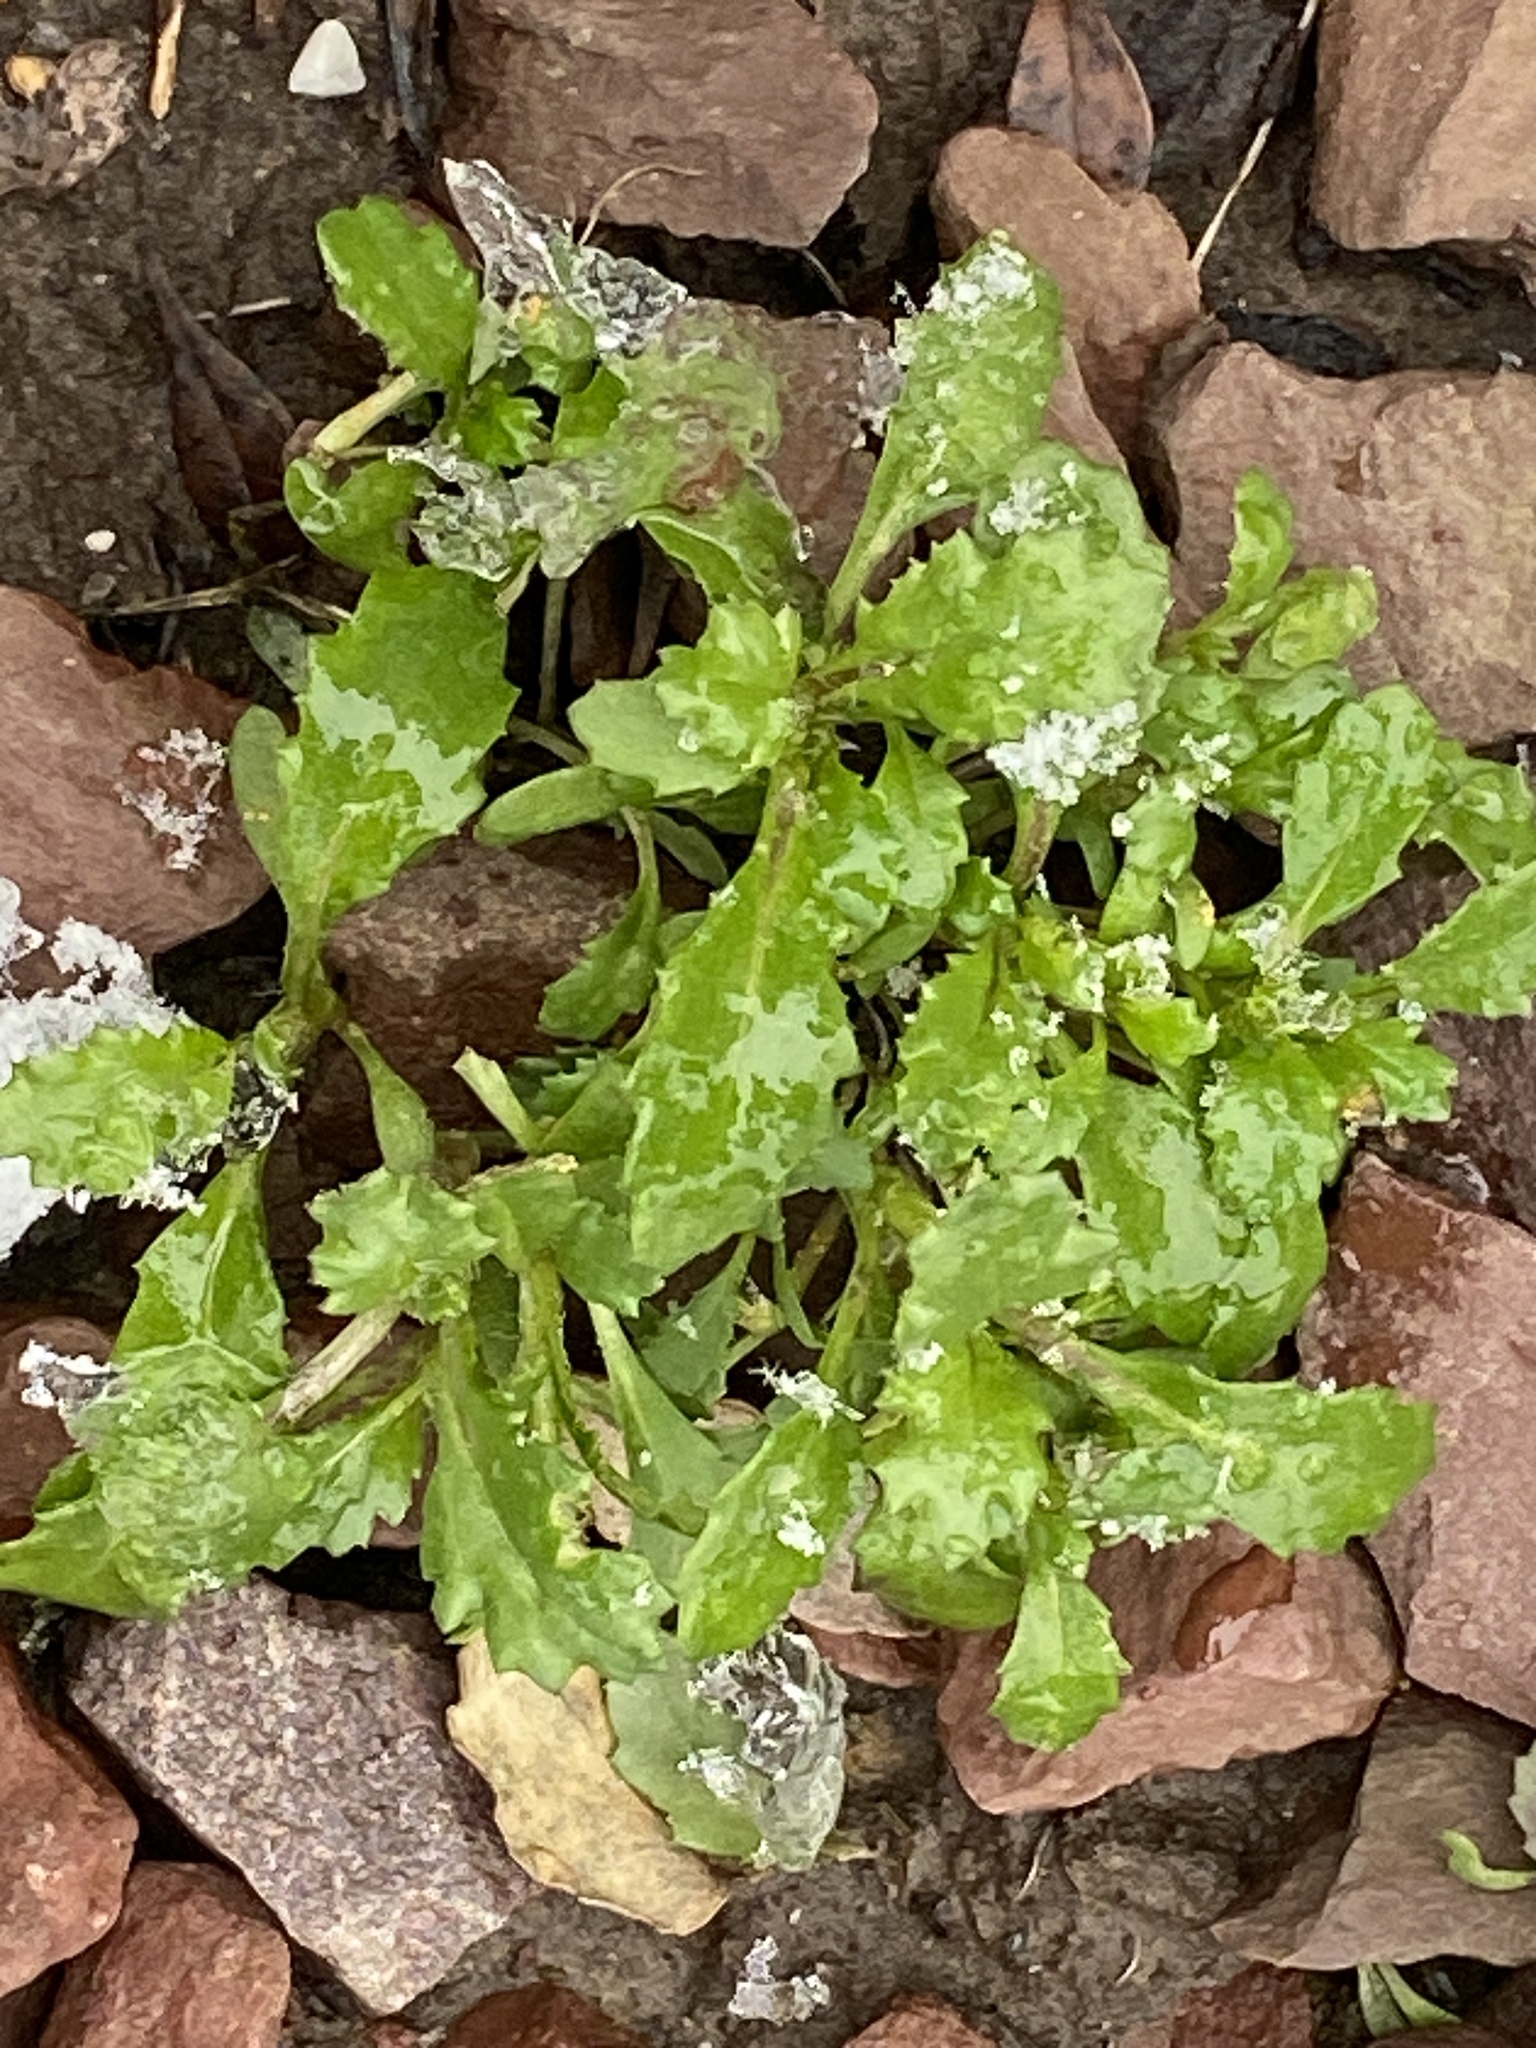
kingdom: Plantae
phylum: Tracheophyta
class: Magnoliopsida
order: Asterales
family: Asteraceae
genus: Senecio
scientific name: Senecio vulgaris
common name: Old-man-in-the-spring
